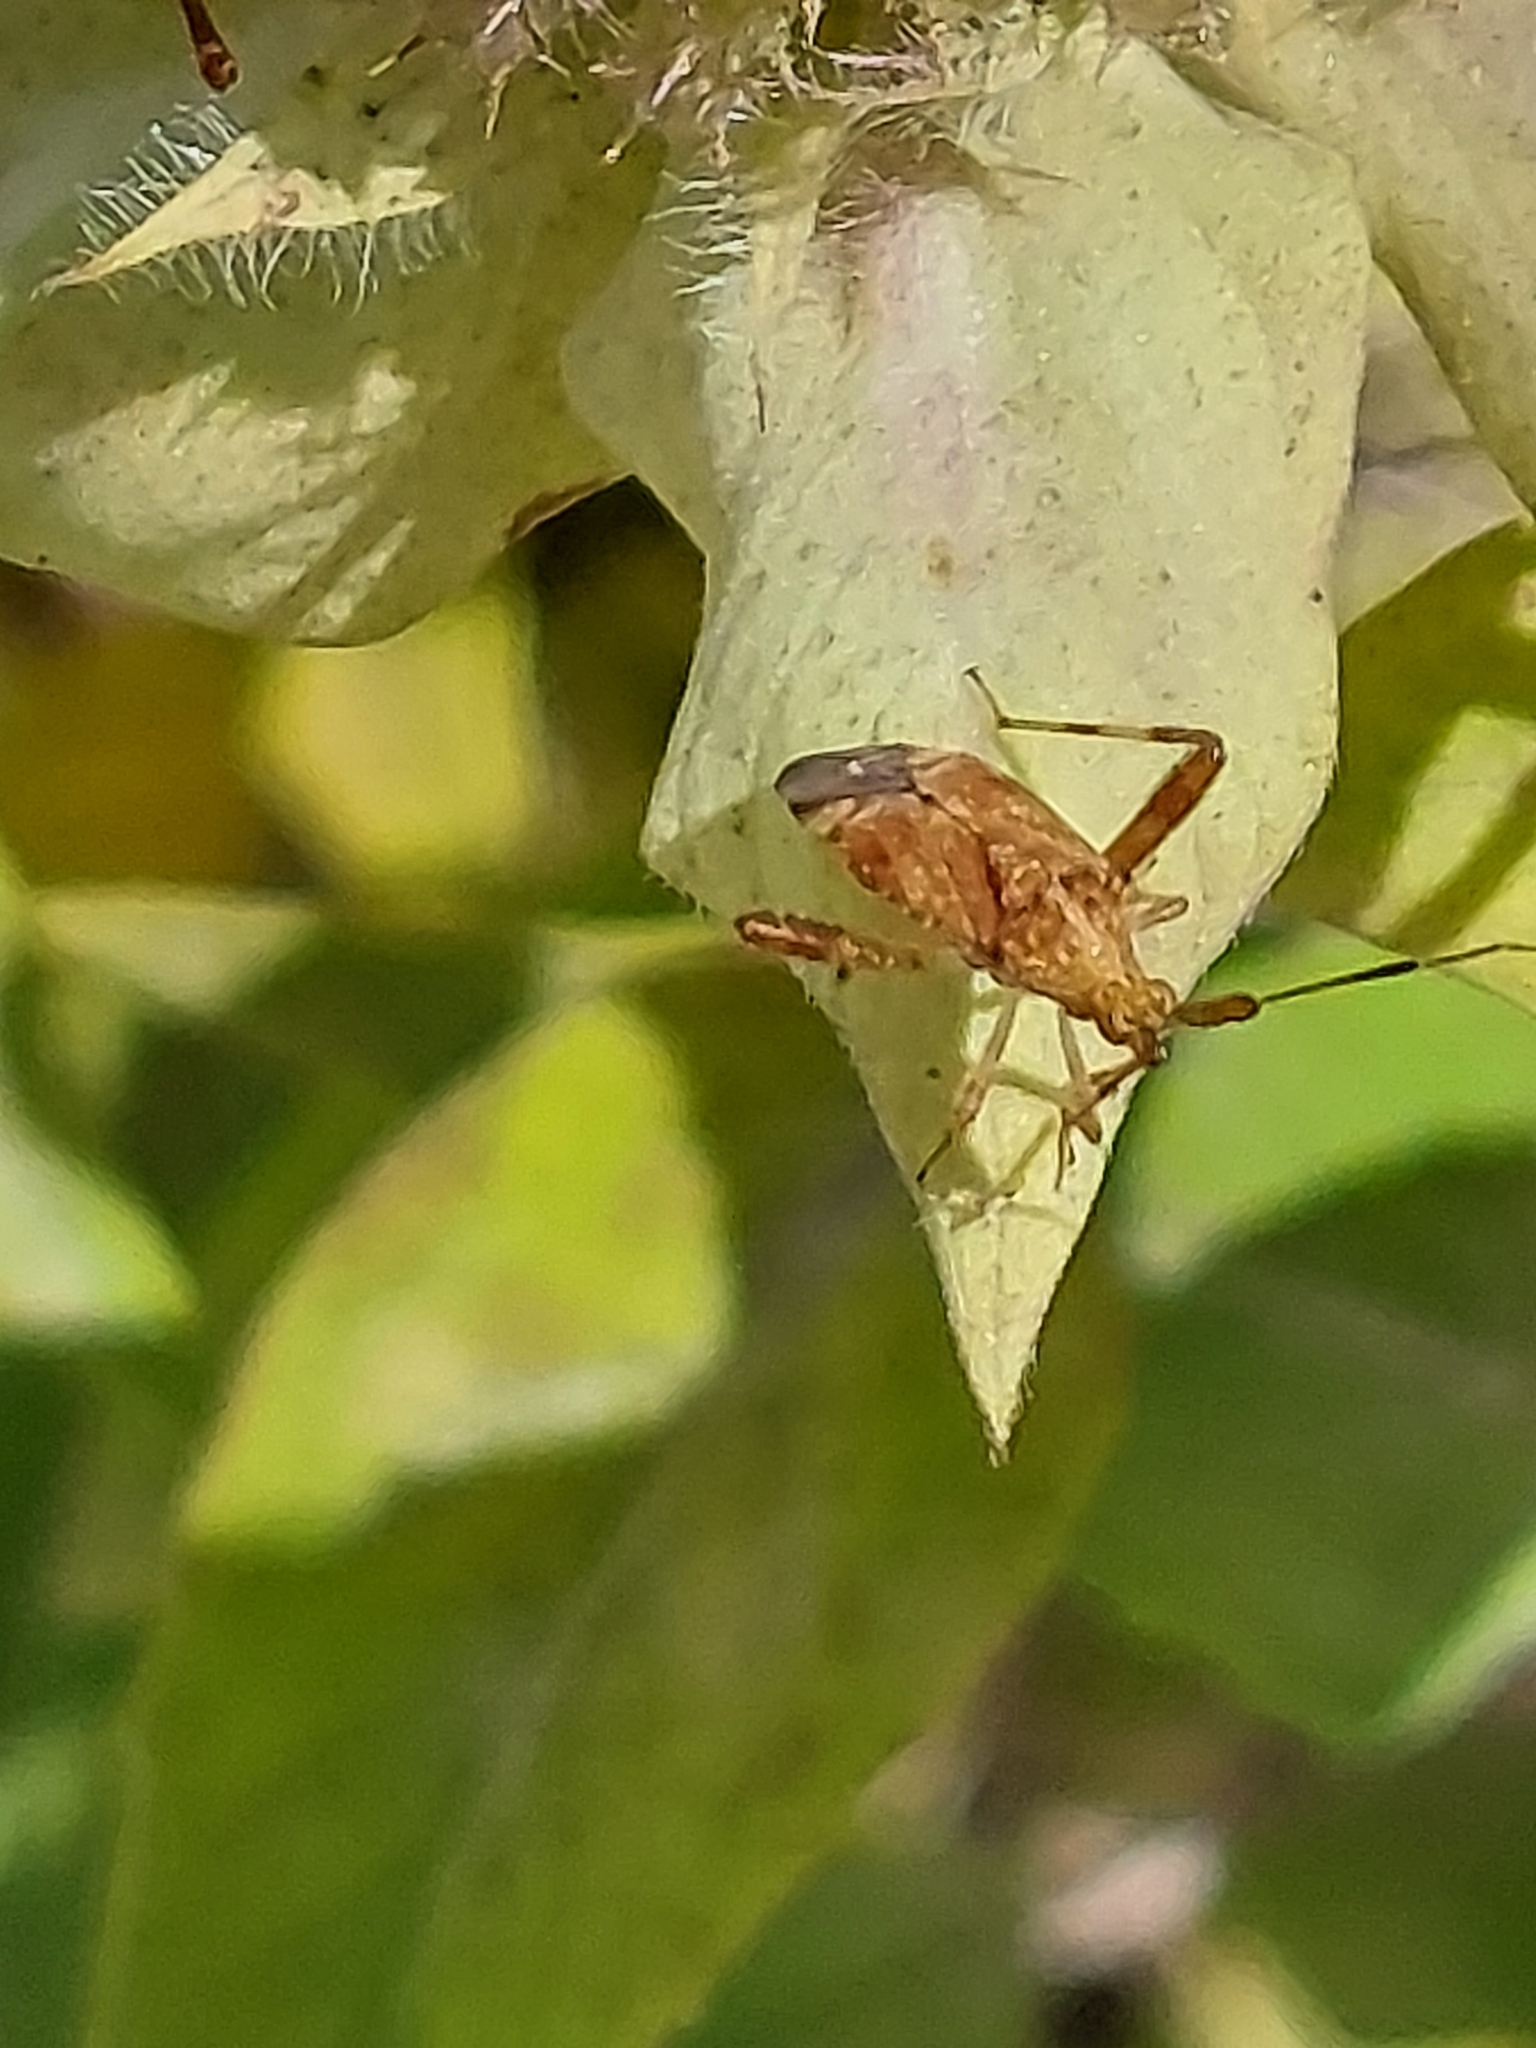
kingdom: Animalia
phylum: Arthropoda
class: Insecta
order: Hemiptera
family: Miridae
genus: Neurocolpus
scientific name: Neurocolpus nubilus
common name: Clouded plant bug
